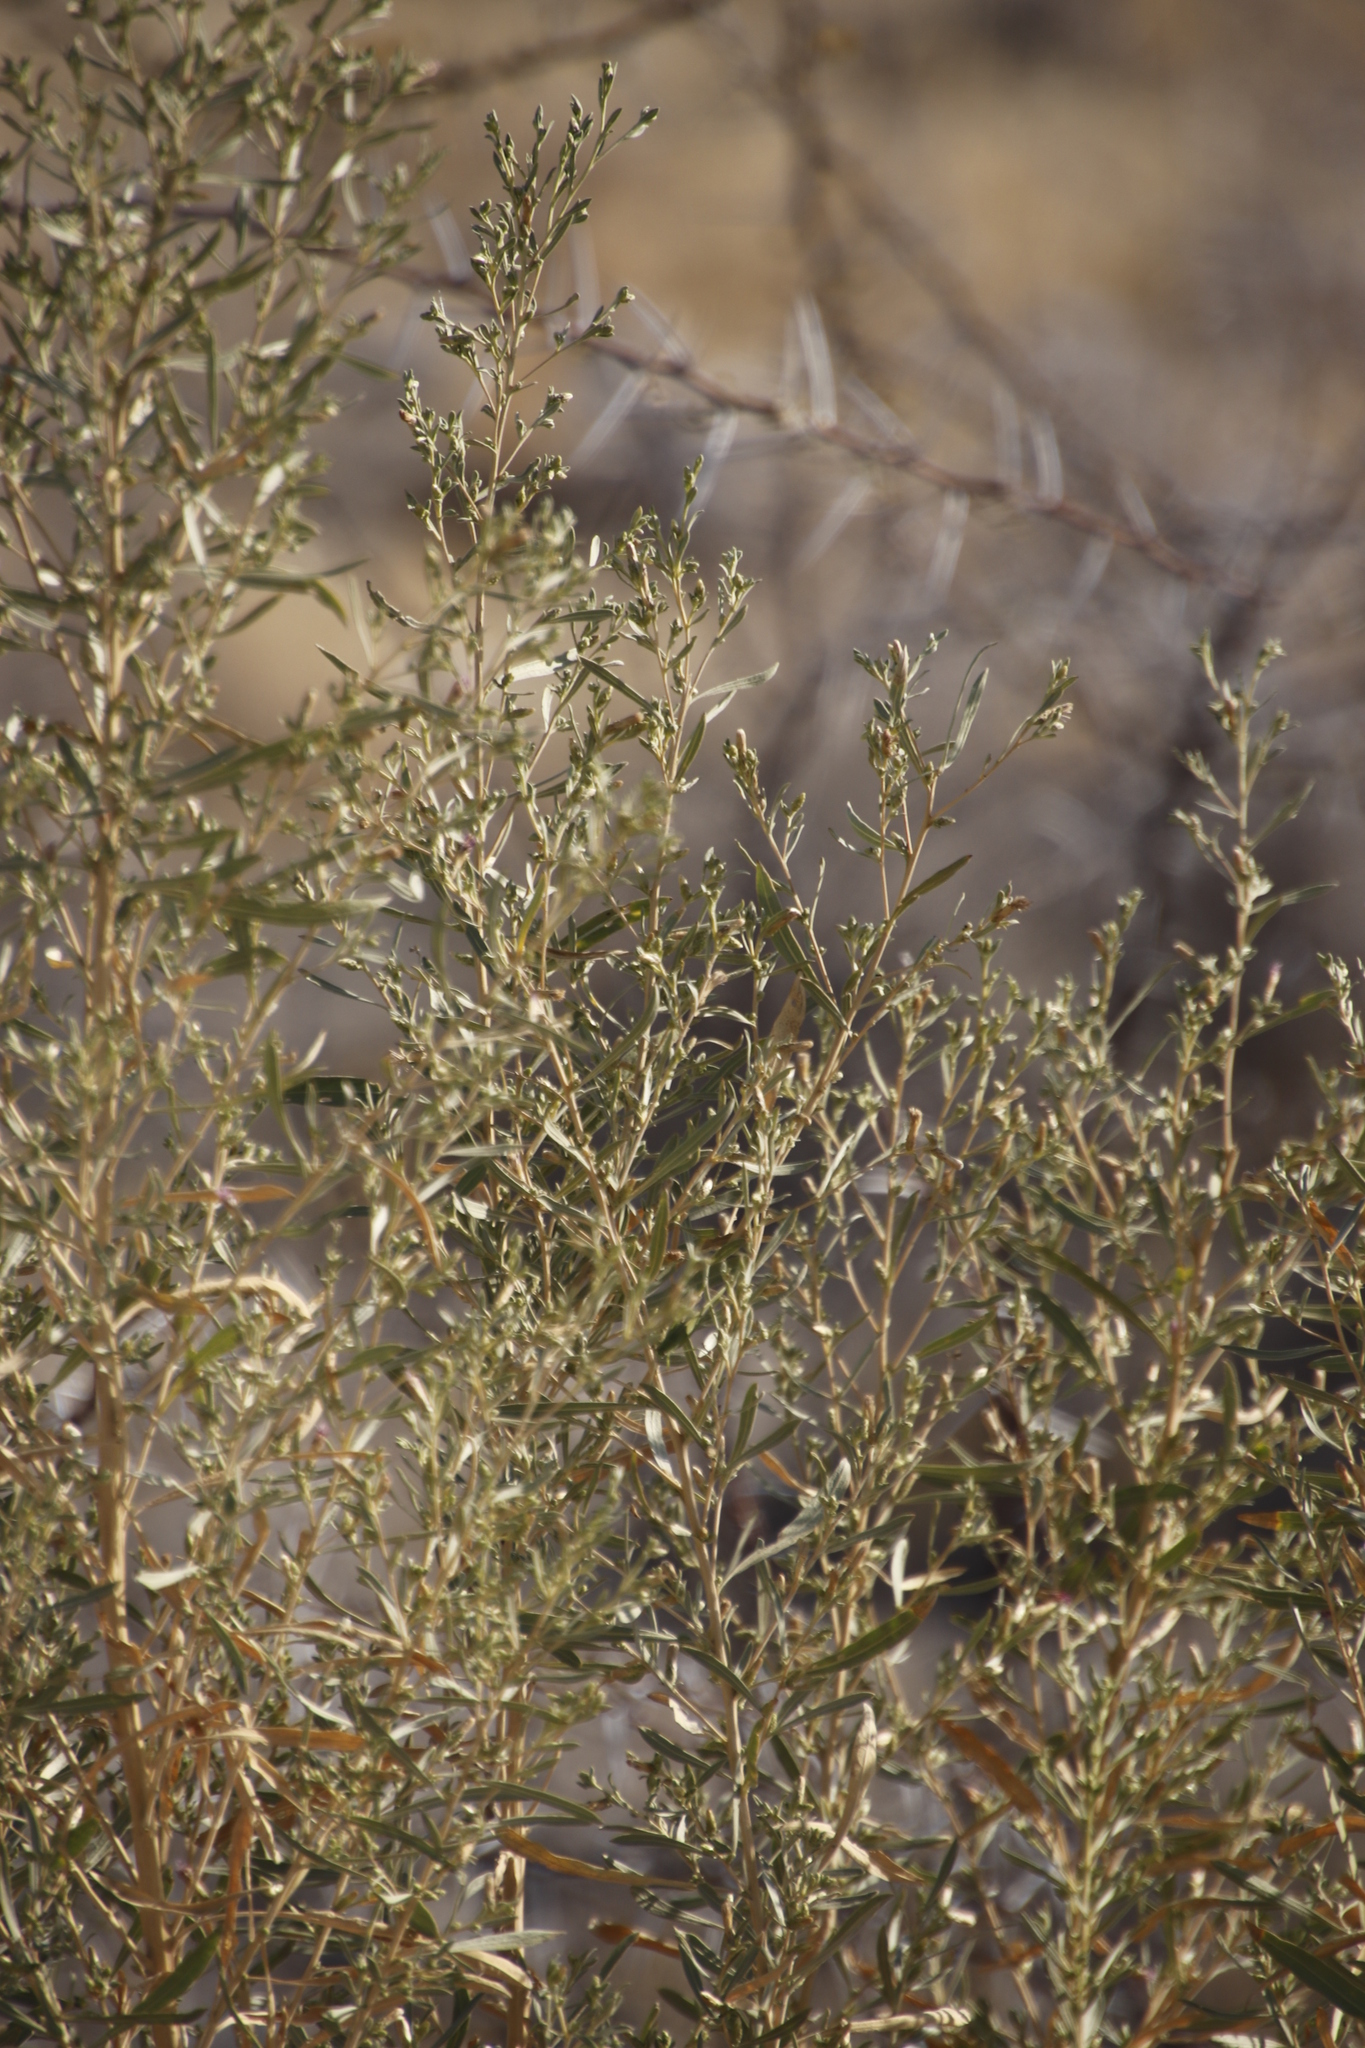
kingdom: Plantae
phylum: Tracheophyta
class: Magnoliopsida
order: Asterales
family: Asteraceae
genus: Pechuel-loeschea
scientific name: Pechuel-loeschea leubnitziae
